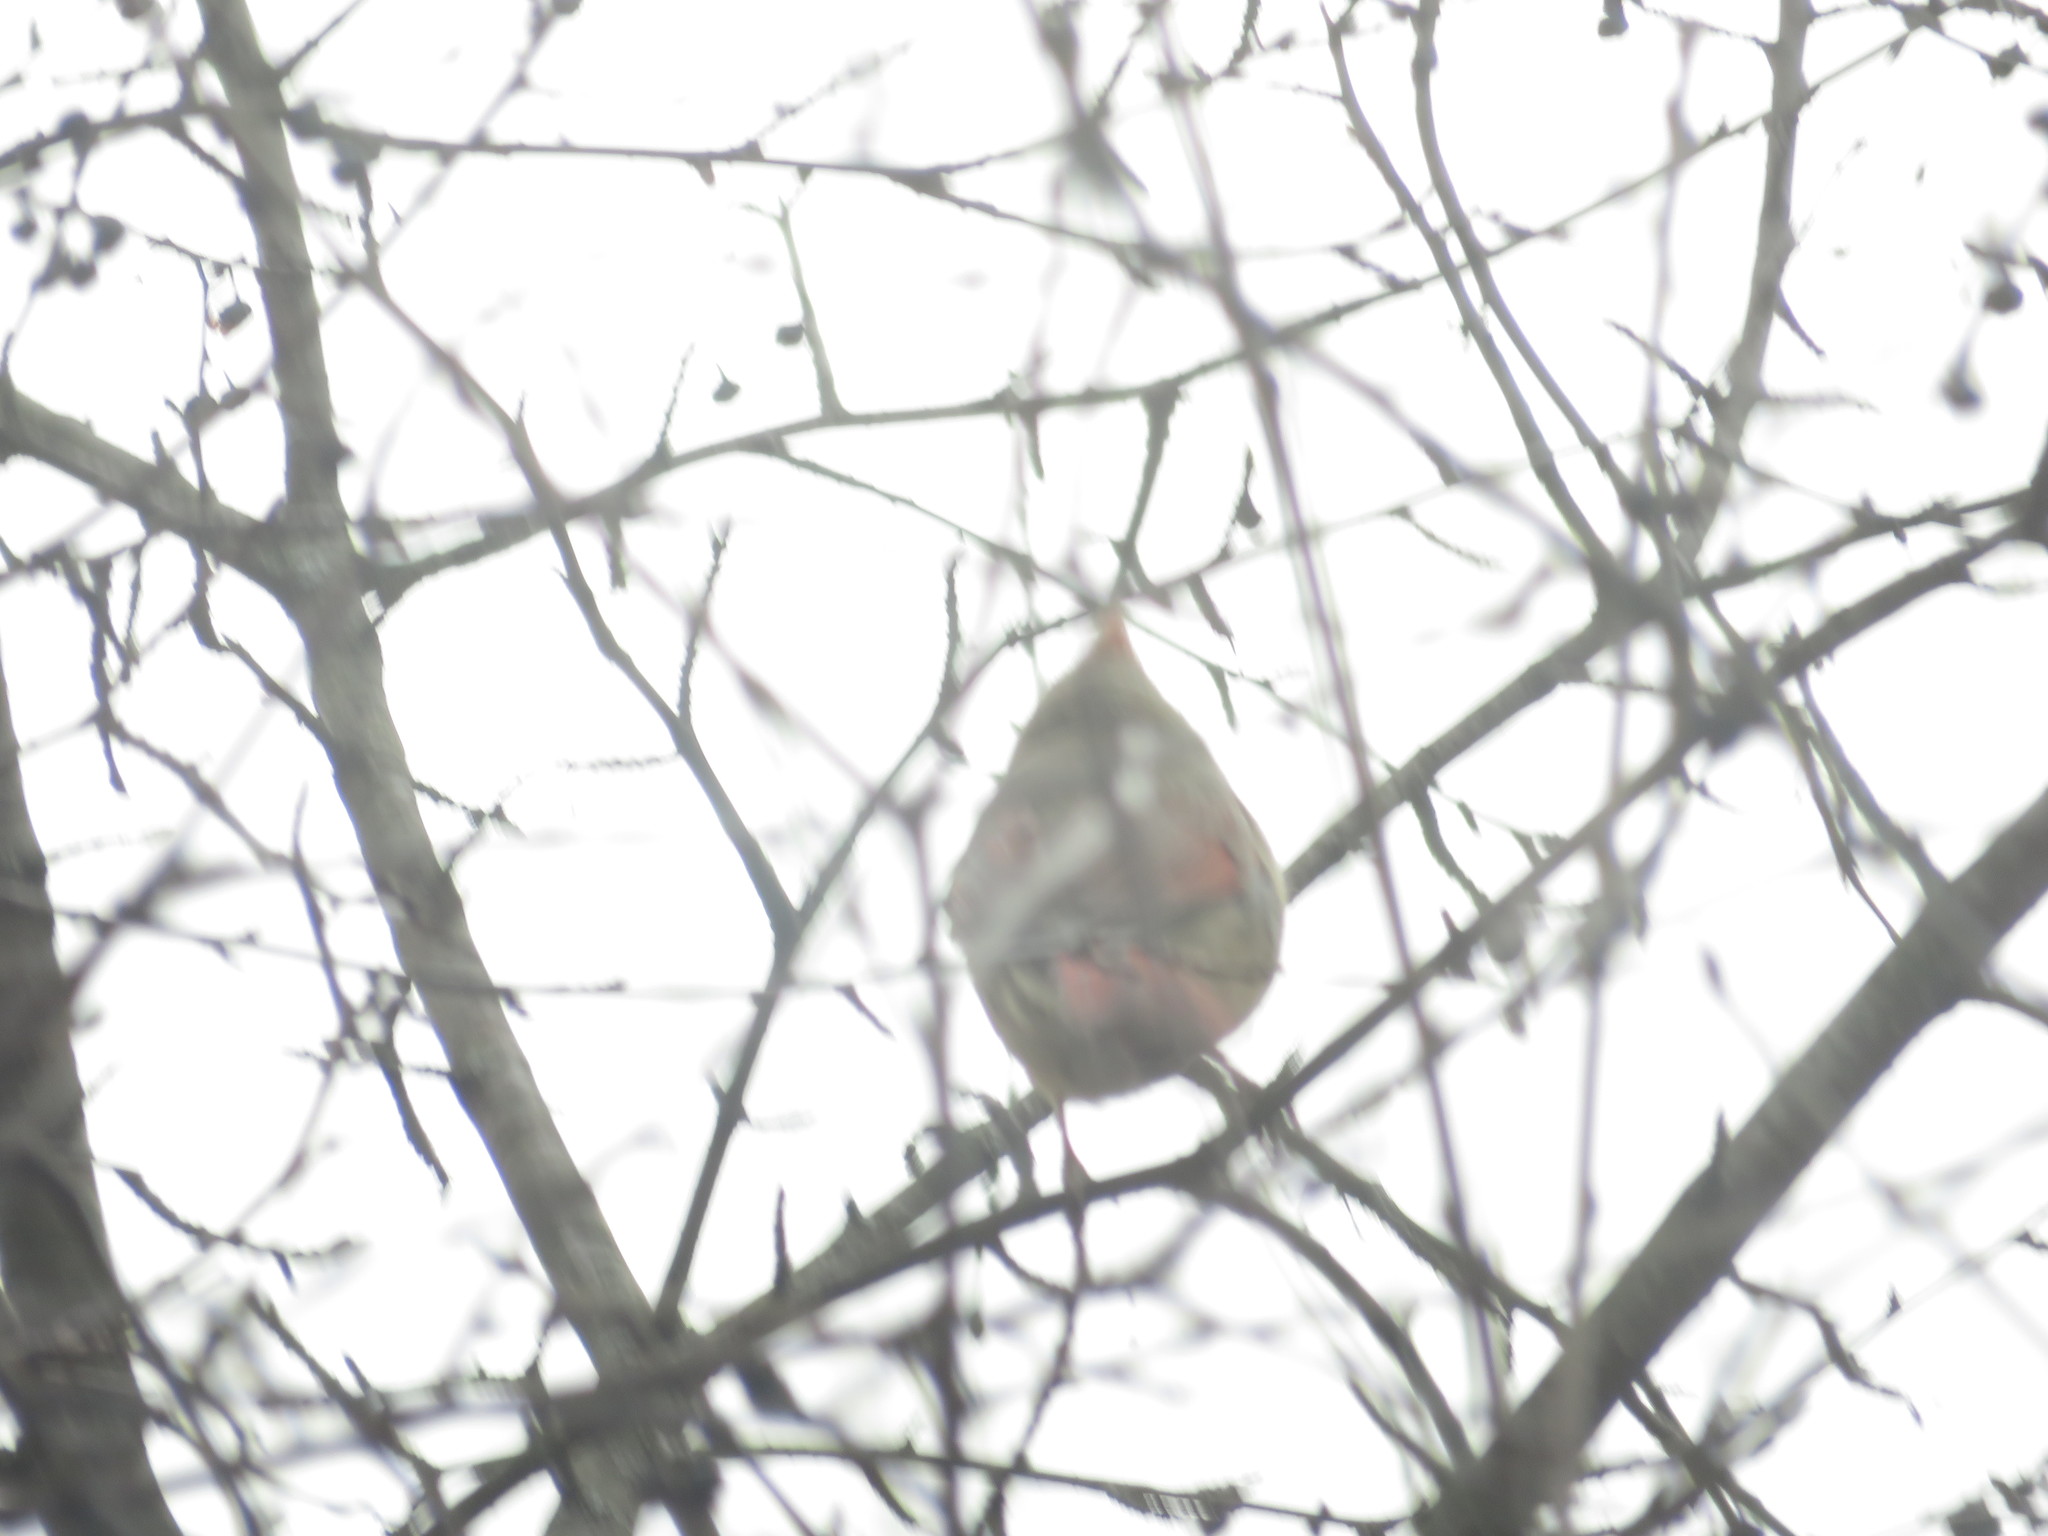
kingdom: Animalia
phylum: Chordata
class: Aves
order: Passeriformes
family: Cardinalidae
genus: Cardinalis
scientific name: Cardinalis cardinalis
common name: Northern cardinal
